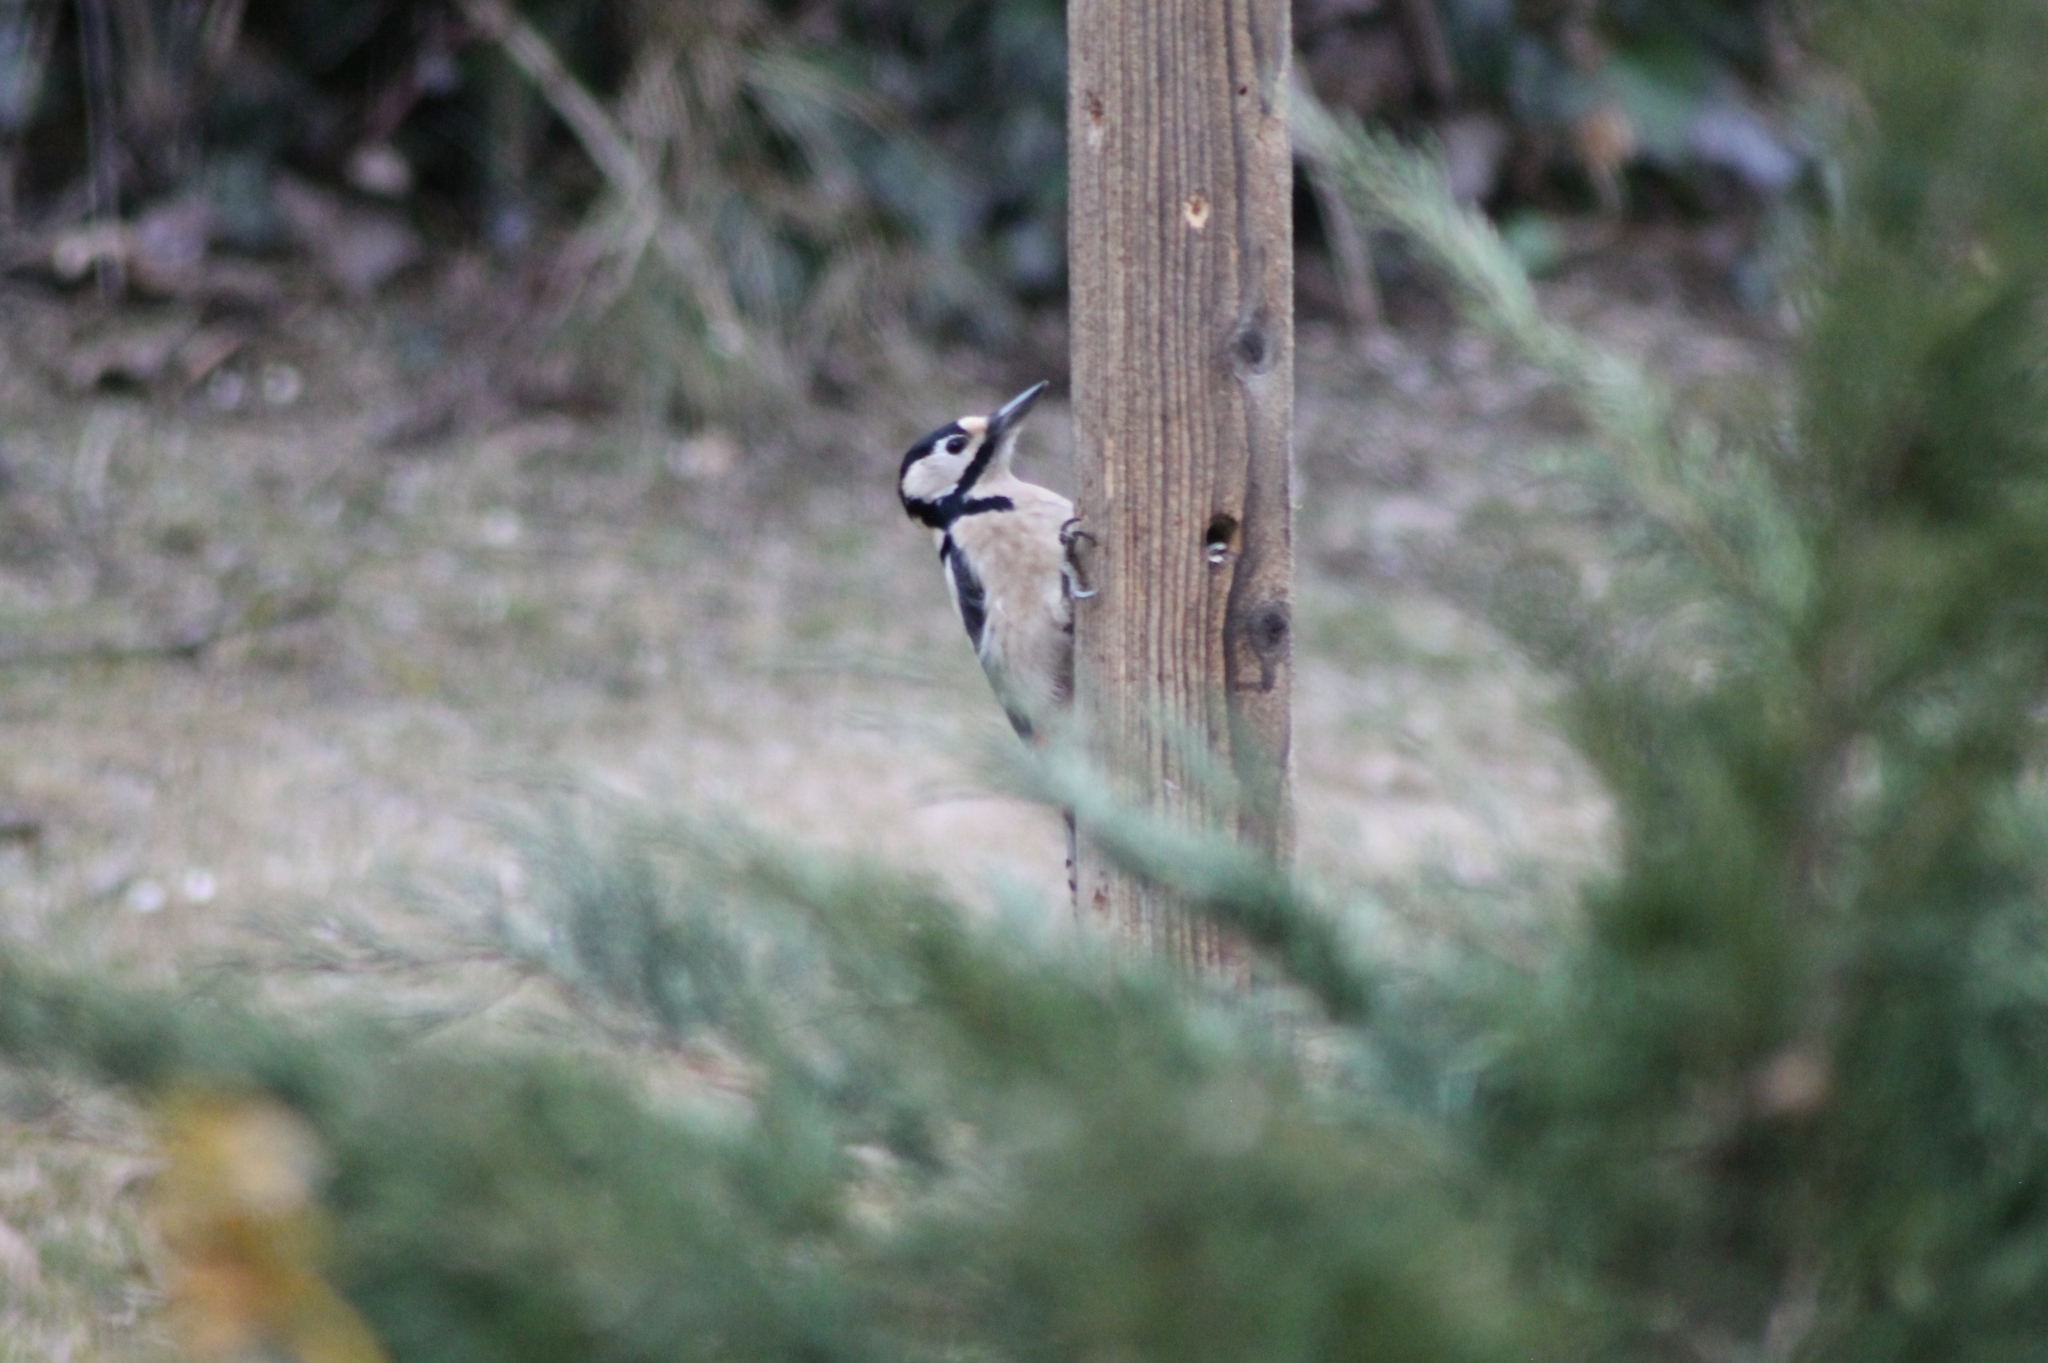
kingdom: Animalia
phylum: Chordata
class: Aves
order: Piciformes
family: Picidae
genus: Dendrocopos
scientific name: Dendrocopos major
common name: Great spotted woodpecker
